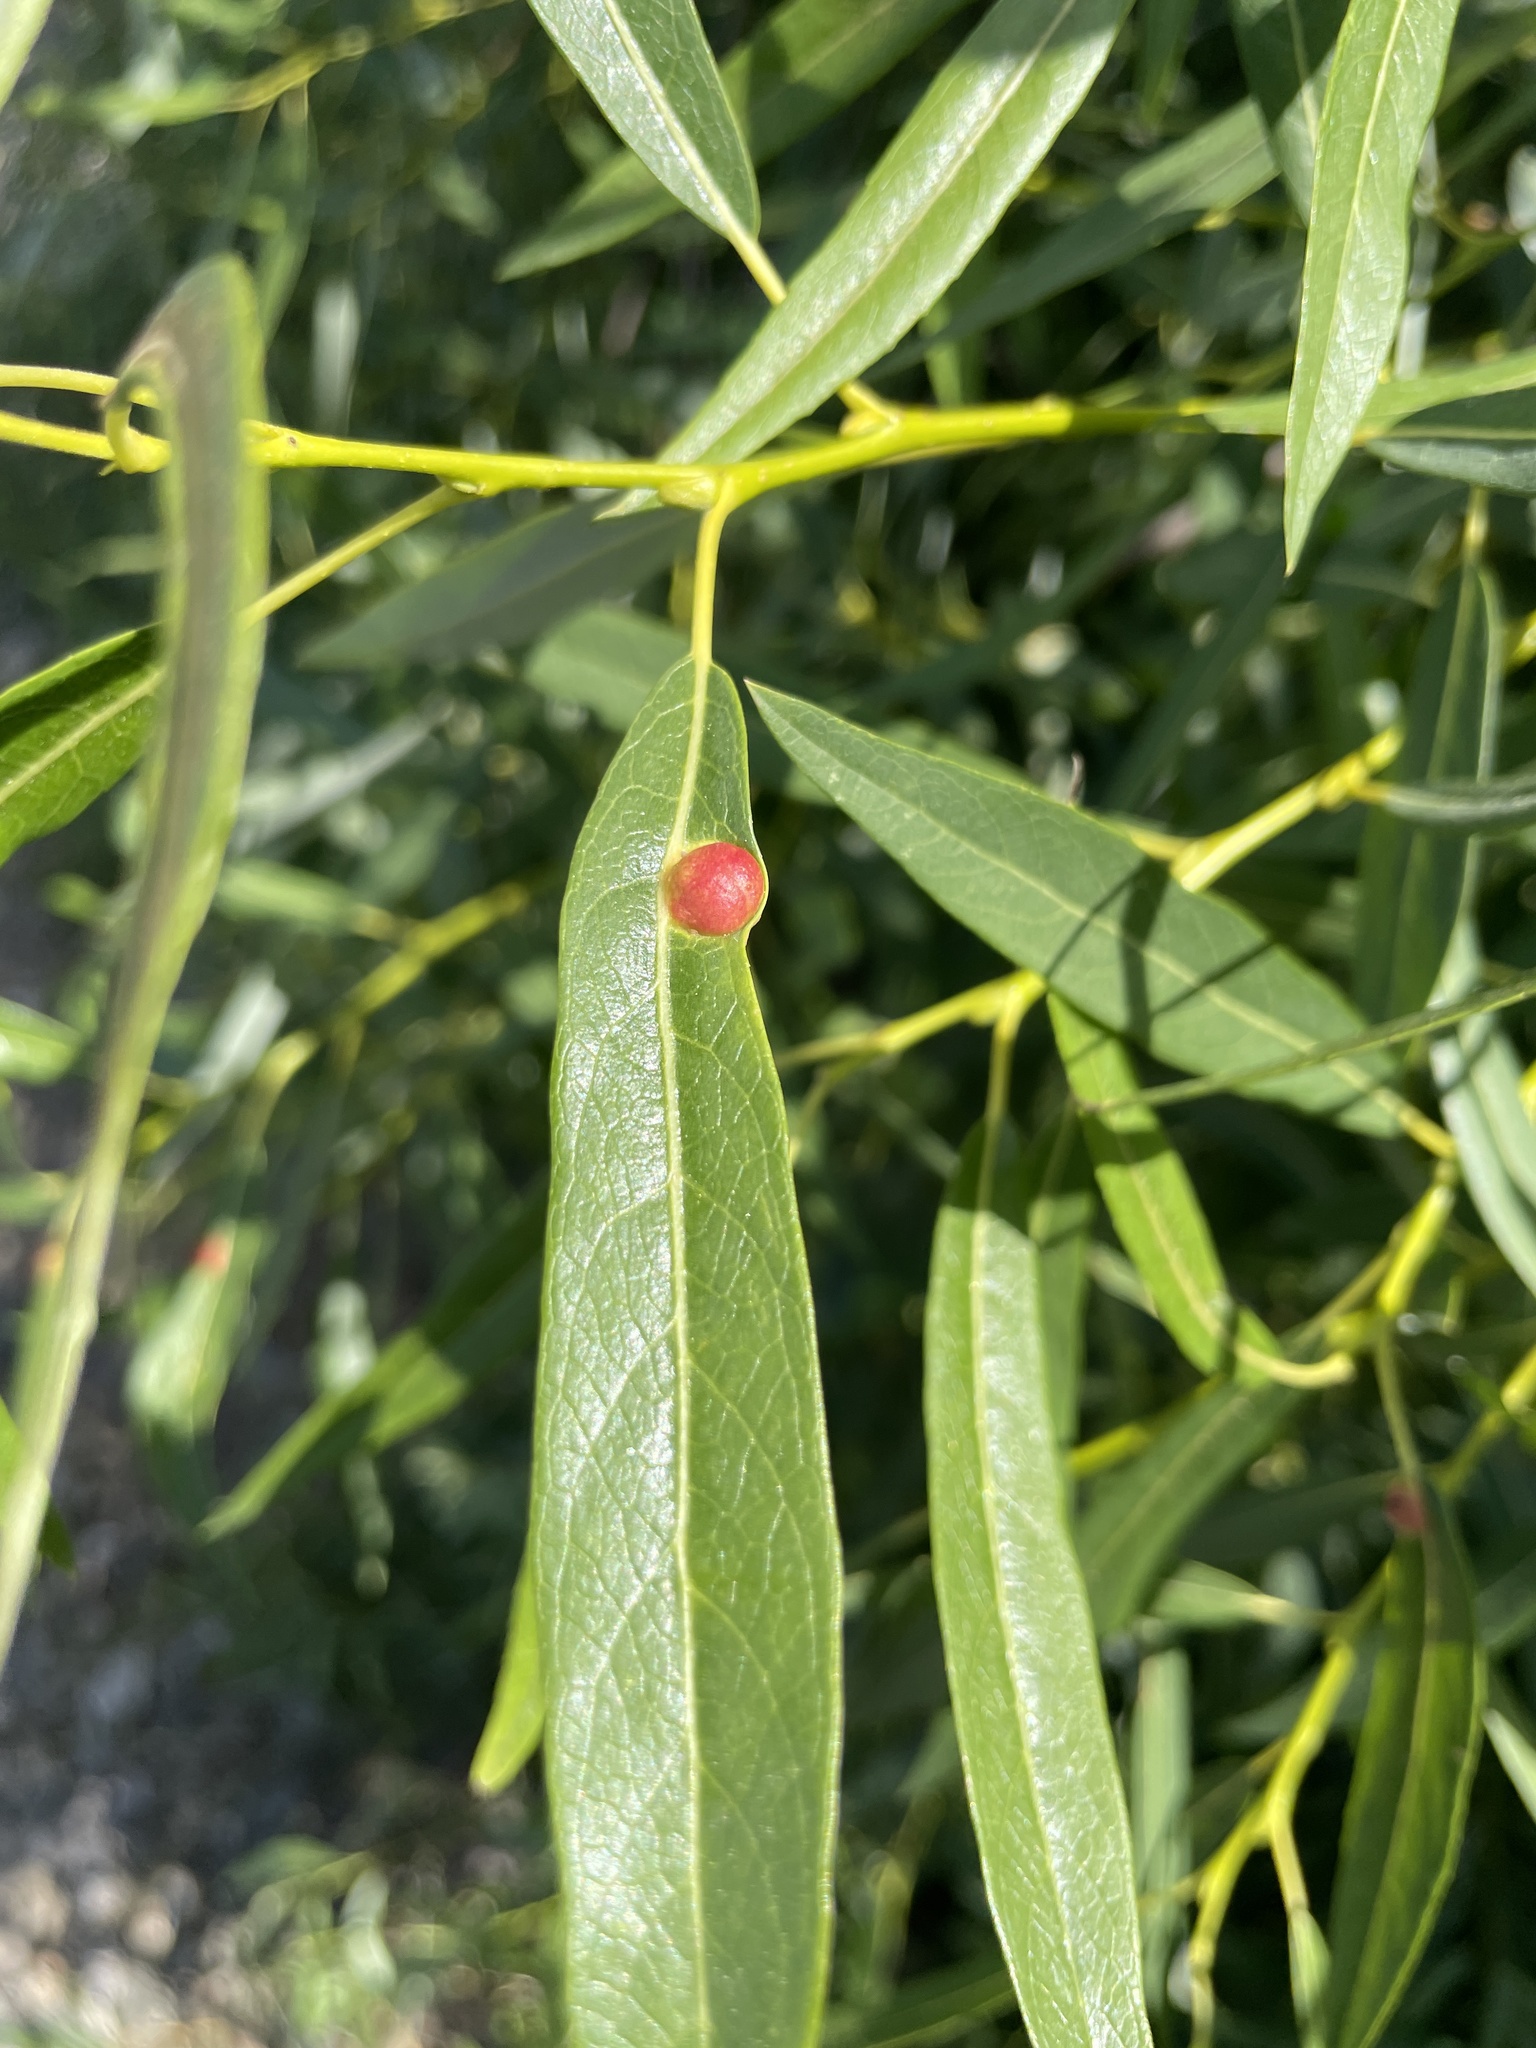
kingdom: Animalia
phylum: Arthropoda
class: Insecta
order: Hymenoptera
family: Tenthredinidae
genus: Euura
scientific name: Euura
